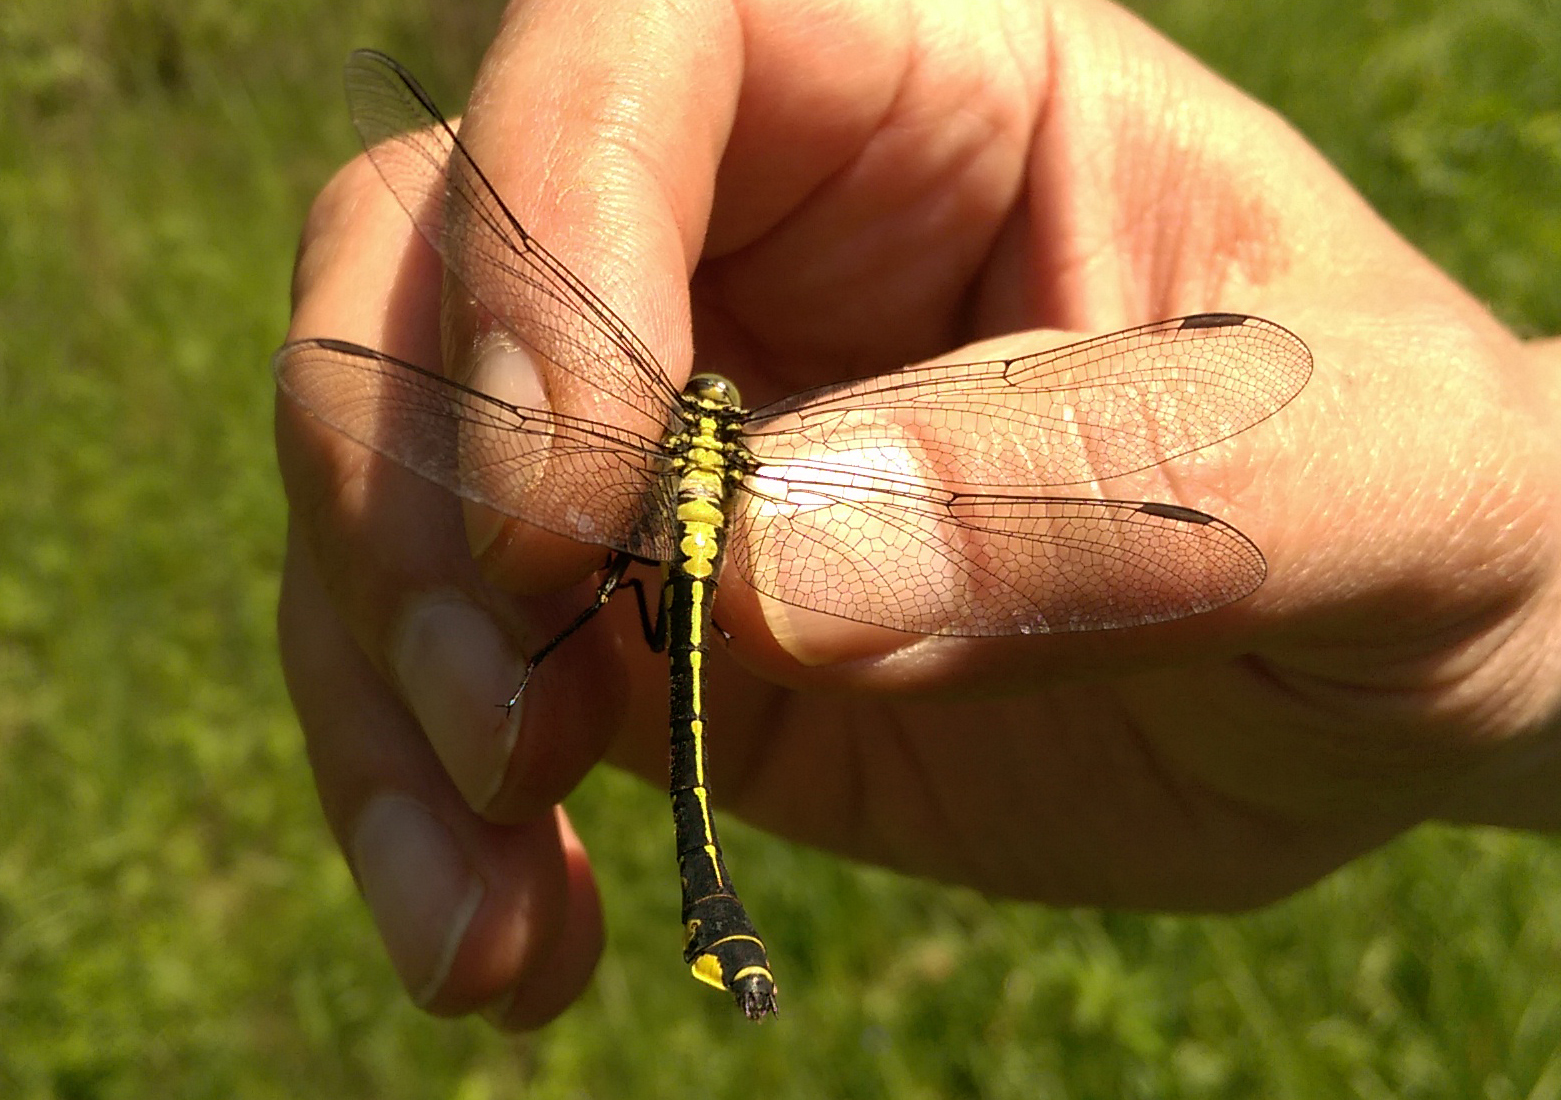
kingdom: Animalia
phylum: Arthropoda
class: Insecta
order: Odonata
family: Gomphidae
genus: Gomphus
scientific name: Gomphus vulgatissimus
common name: Club-tailed dragonfly
